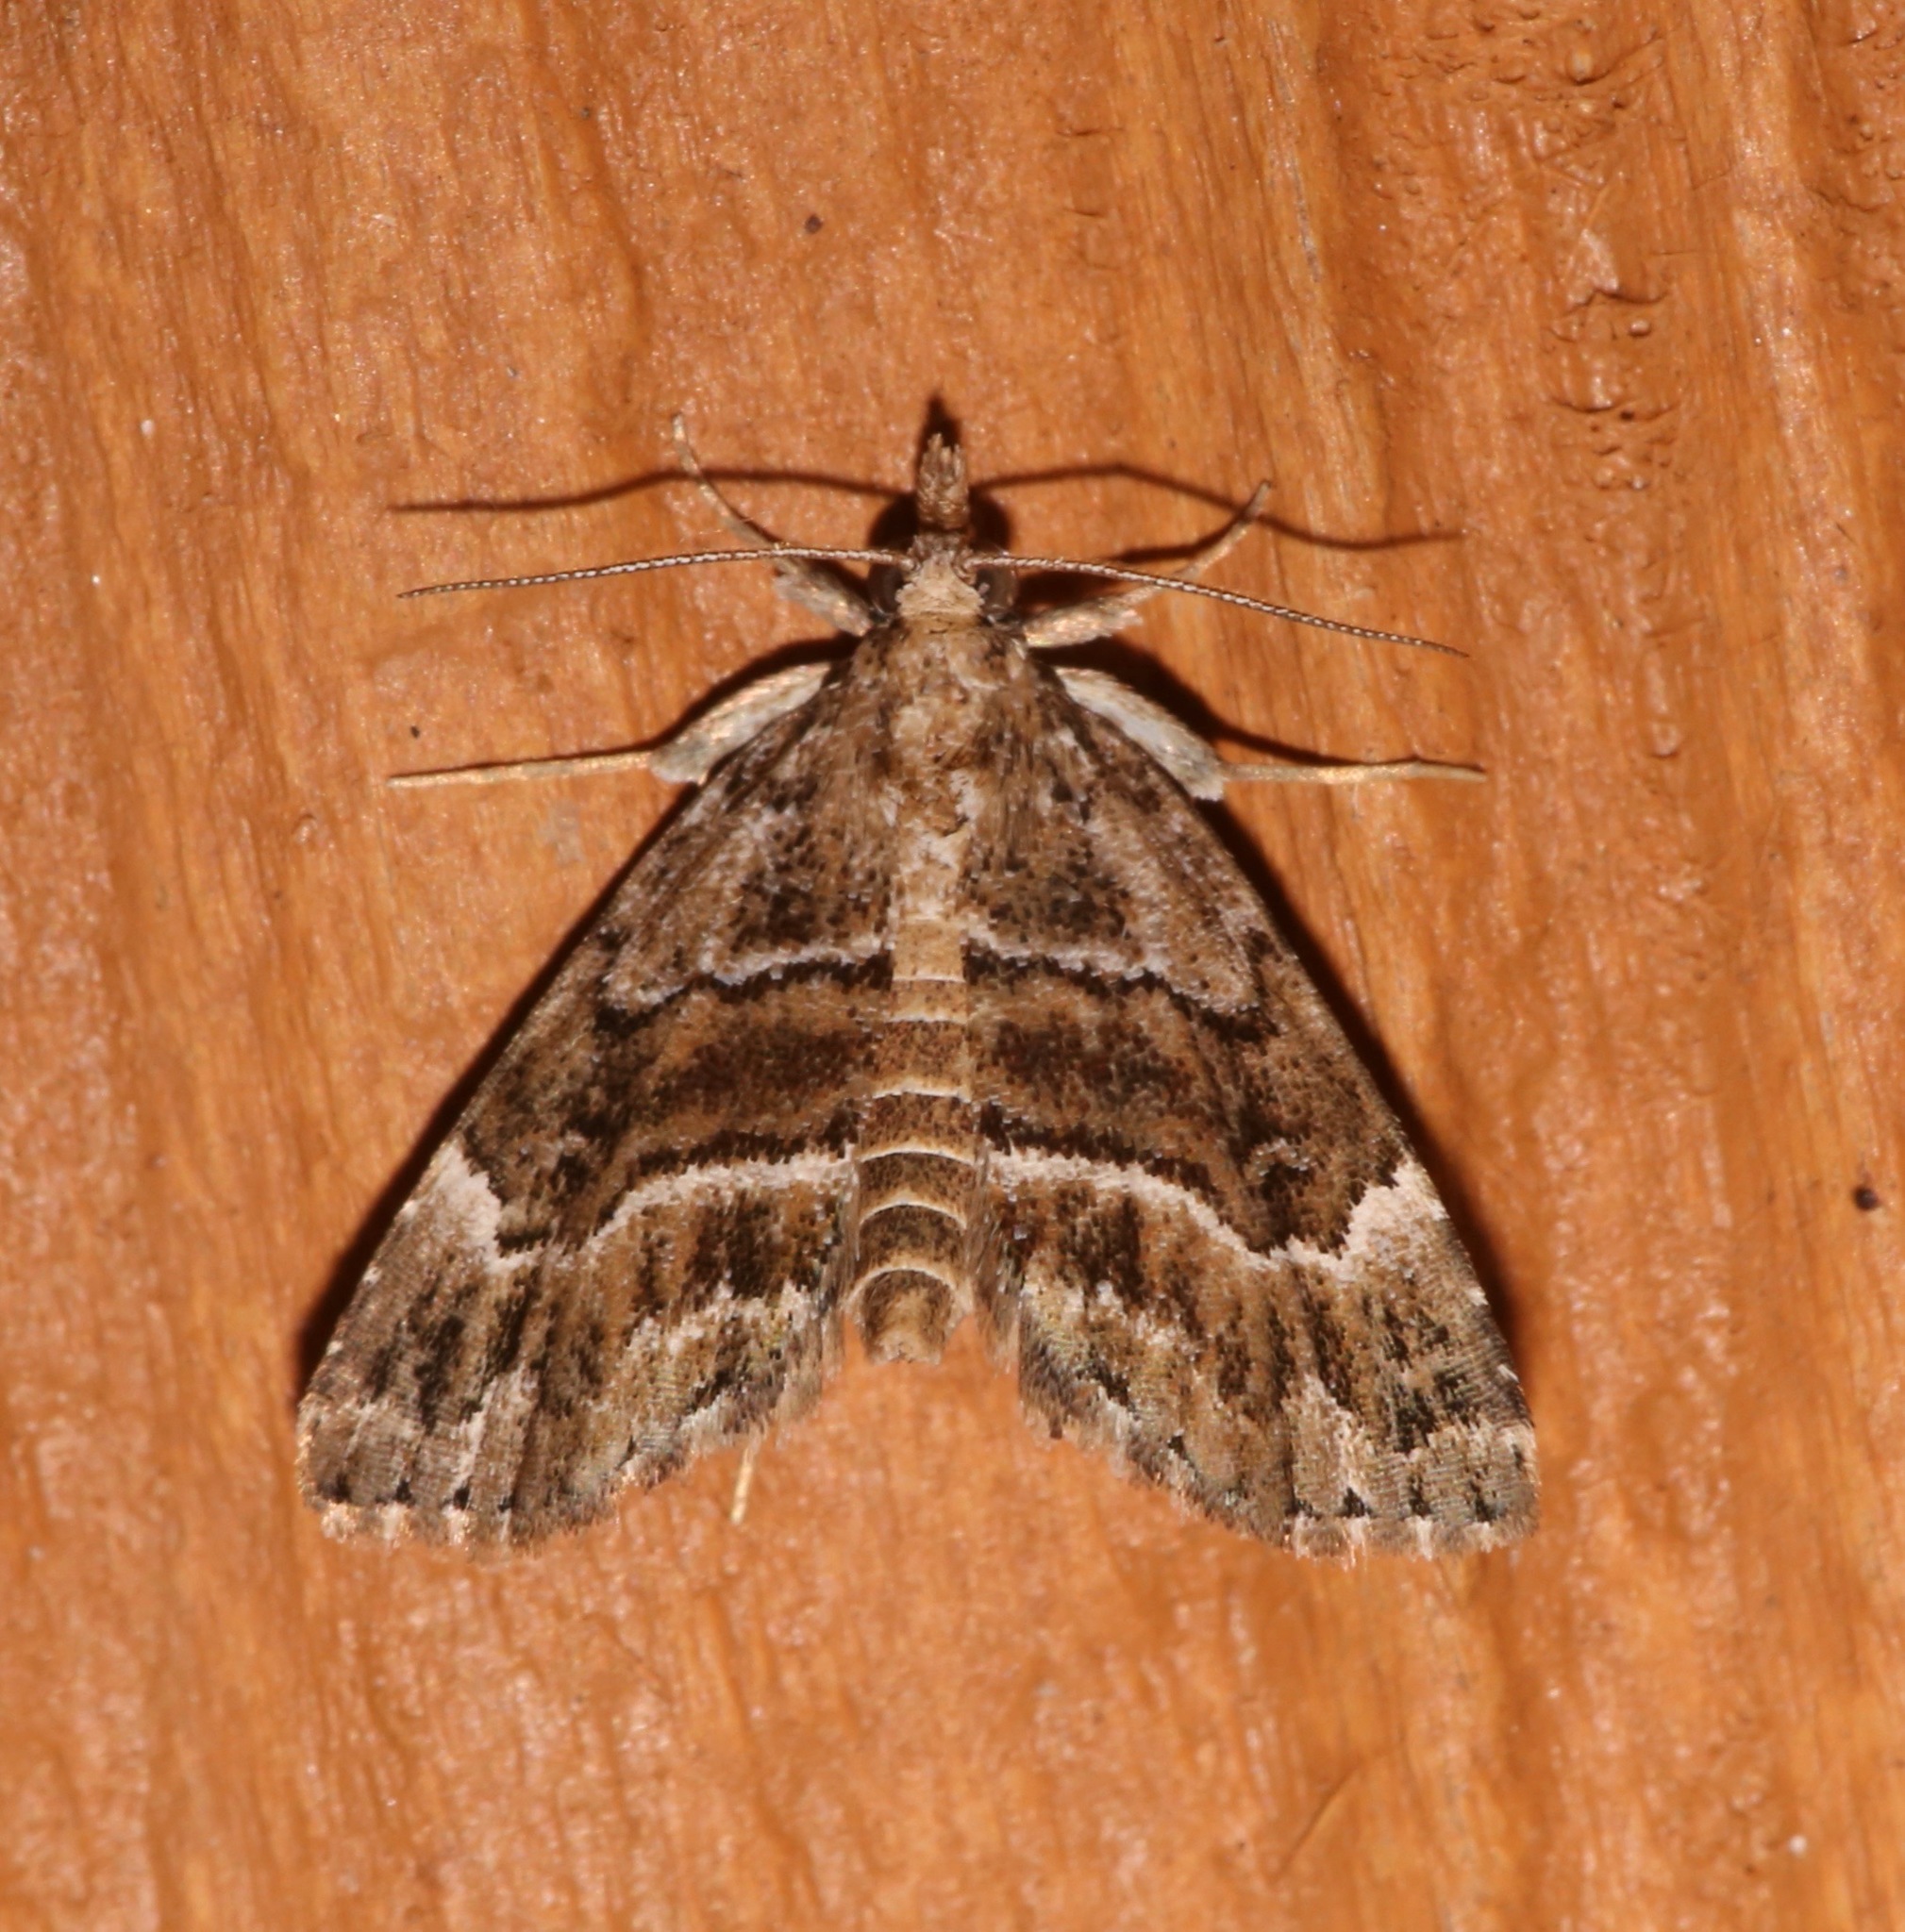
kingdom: Animalia
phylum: Arthropoda
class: Insecta
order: Lepidoptera
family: Erebidae
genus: Cutina
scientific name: Cutina arcuata
